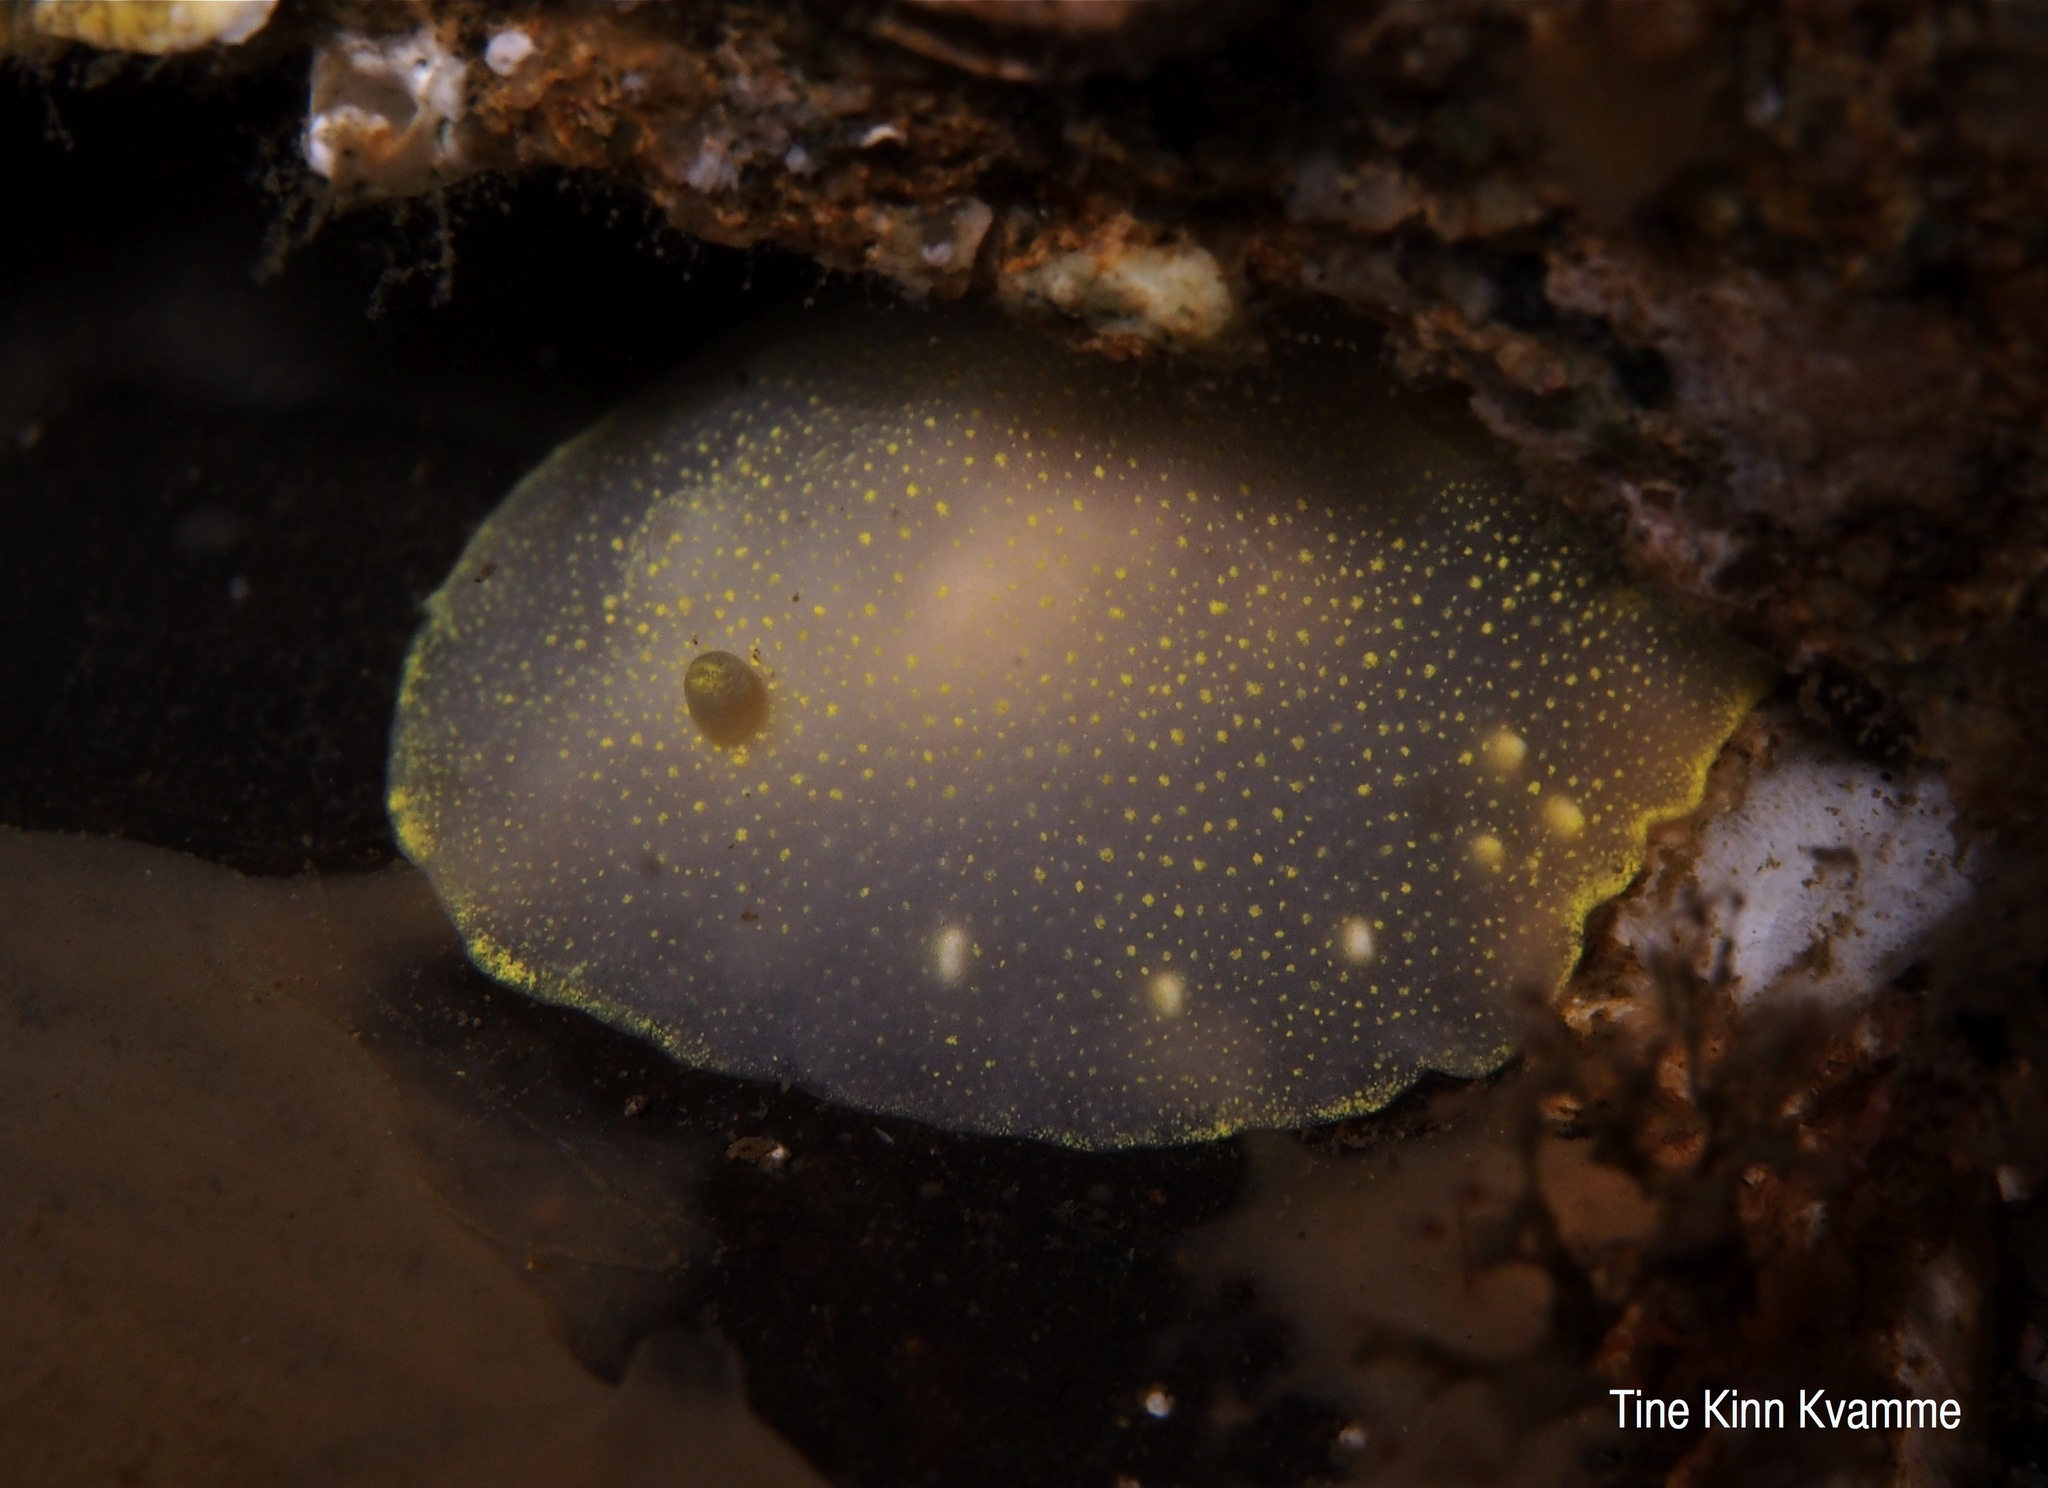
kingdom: Animalia
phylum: Mollusca
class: Gastropoda
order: Nudibranchia
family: Cadlinidae
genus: Cadlina
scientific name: Cadlina laevis
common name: White atlantic cadlina
